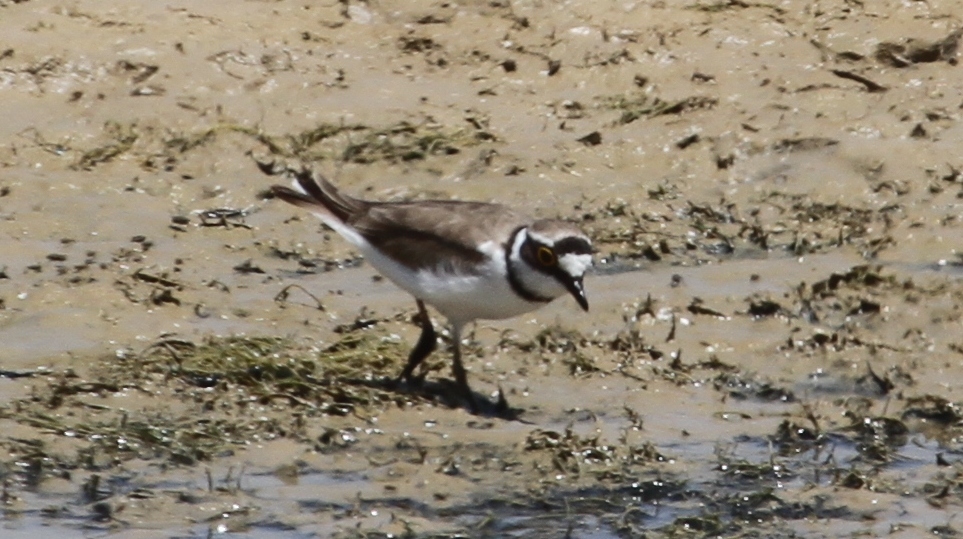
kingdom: Animalia
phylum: Chordata
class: Aves
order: Charadriiformes
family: Charadriidae
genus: Charadrius
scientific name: Charadrius dubius
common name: Little ringed plover
